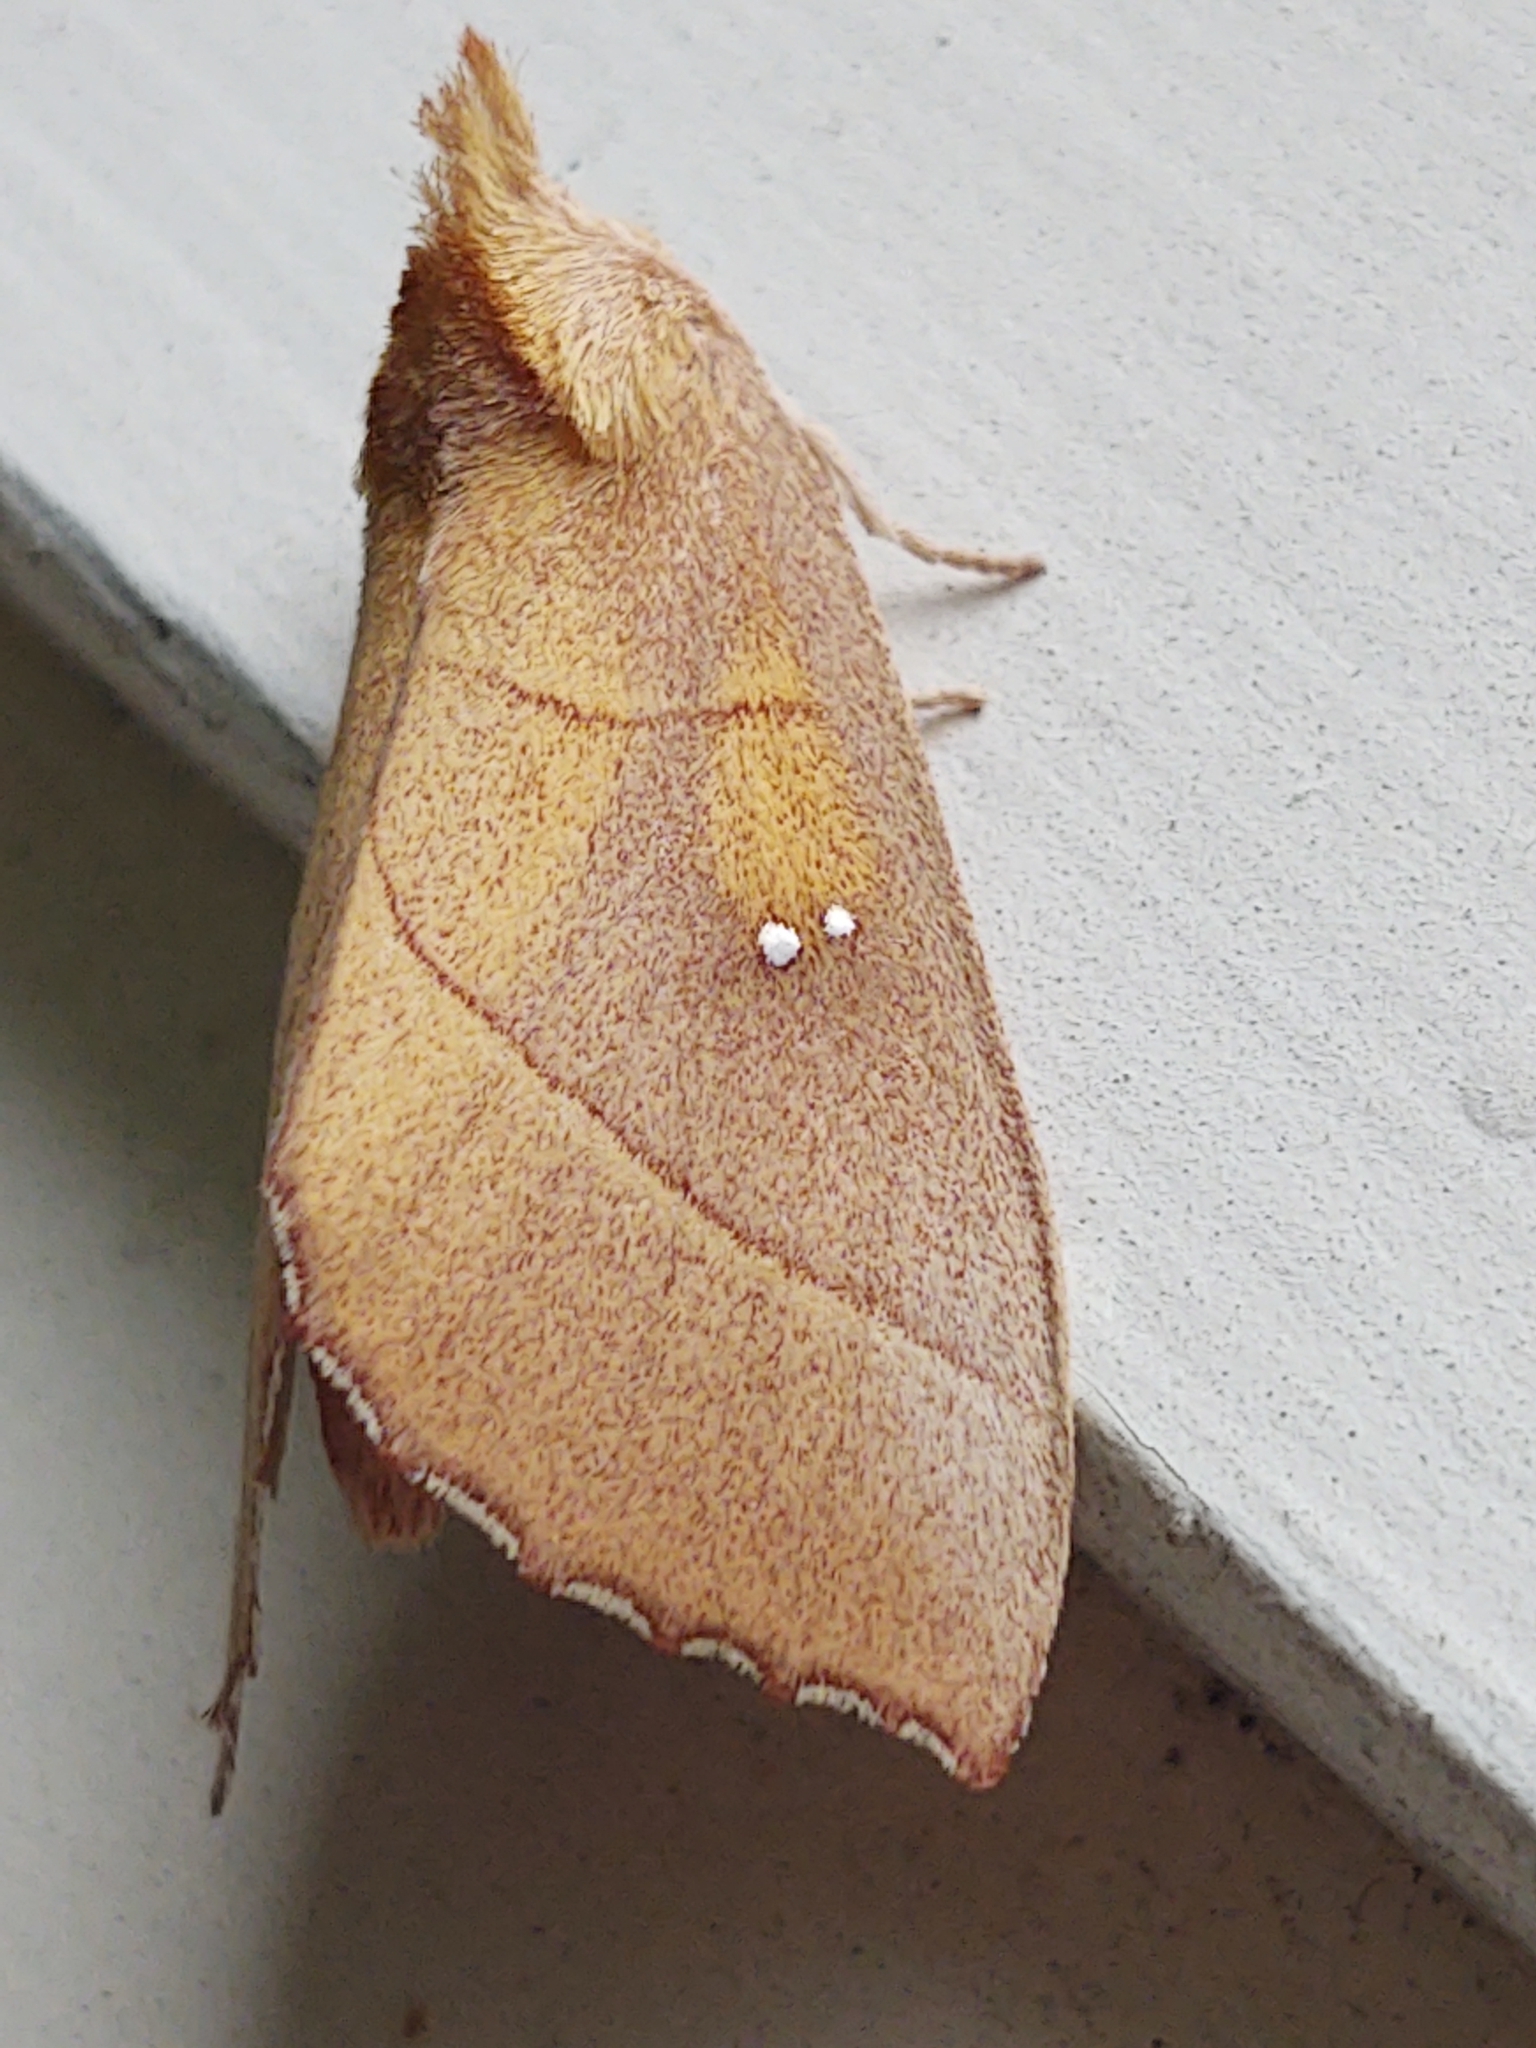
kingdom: Animalia
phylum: Arthropoda
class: Insecta
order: Lepidoptera
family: Notodontidae
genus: Nadata
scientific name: Nadata gibbosa
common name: White-dotted prominent
